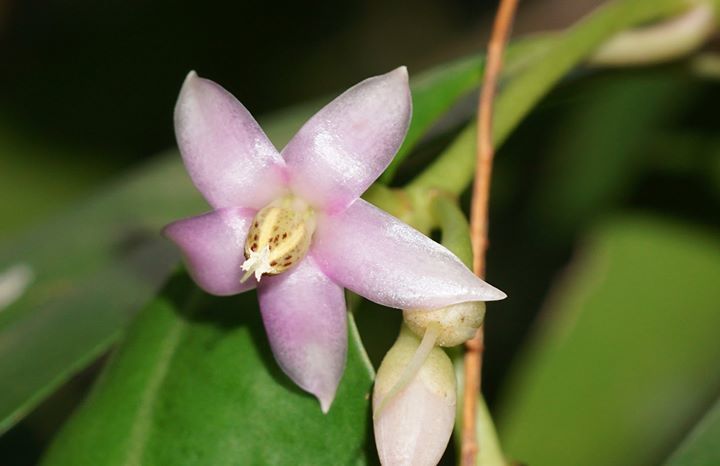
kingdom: Plantae
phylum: Tracheophyta
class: Magnoliopsida
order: Ericales
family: Primulaceae
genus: Ardisia
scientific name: Ardisia elliptica
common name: Shoebutton
